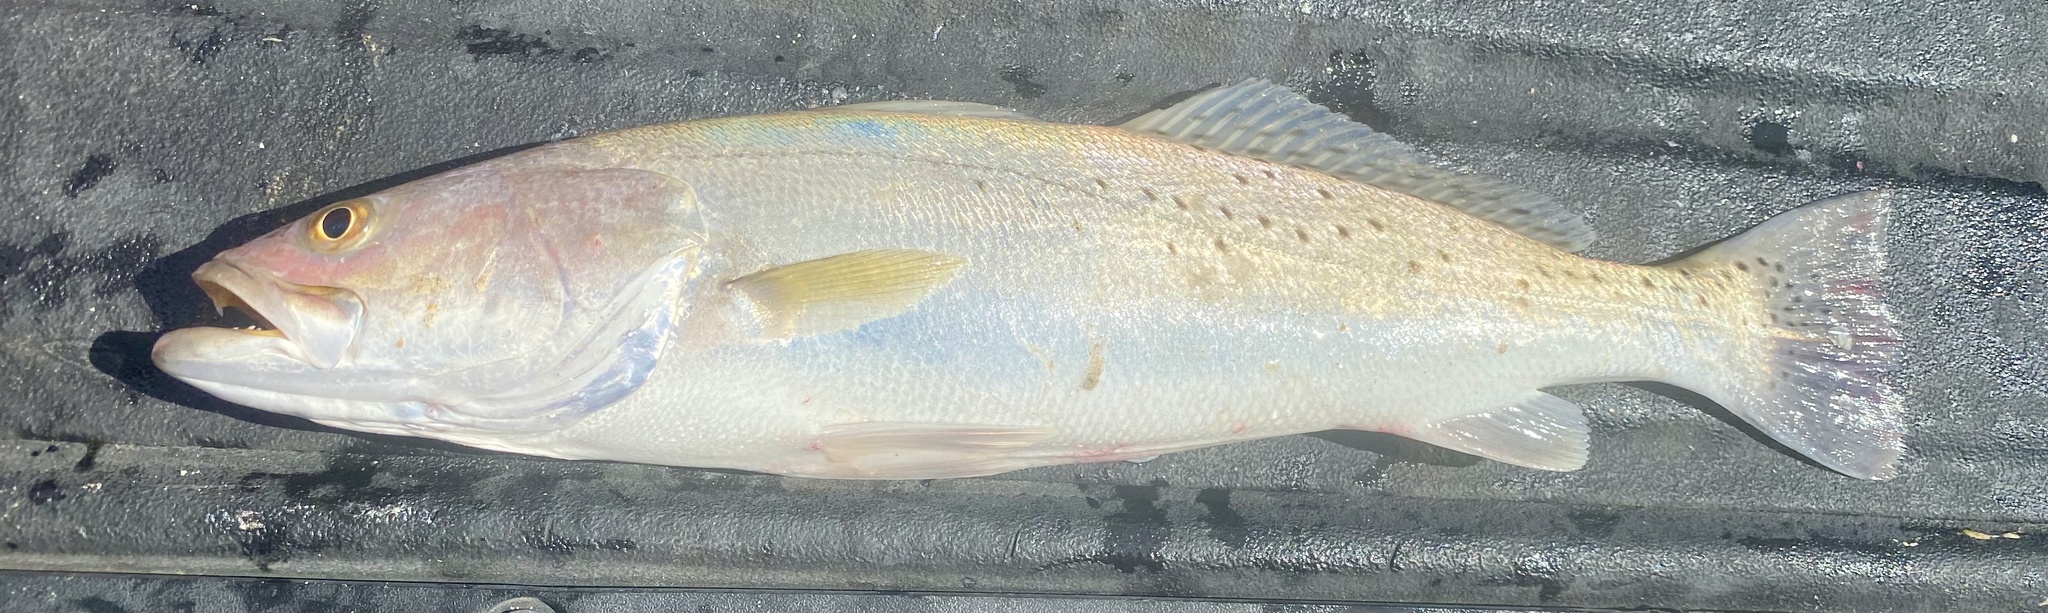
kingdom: Animalia
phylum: Chordata
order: Perciformes
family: Sciaenidae
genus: Cynoscion
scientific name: Cynoscion nebulosus
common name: Spotted seatrout
